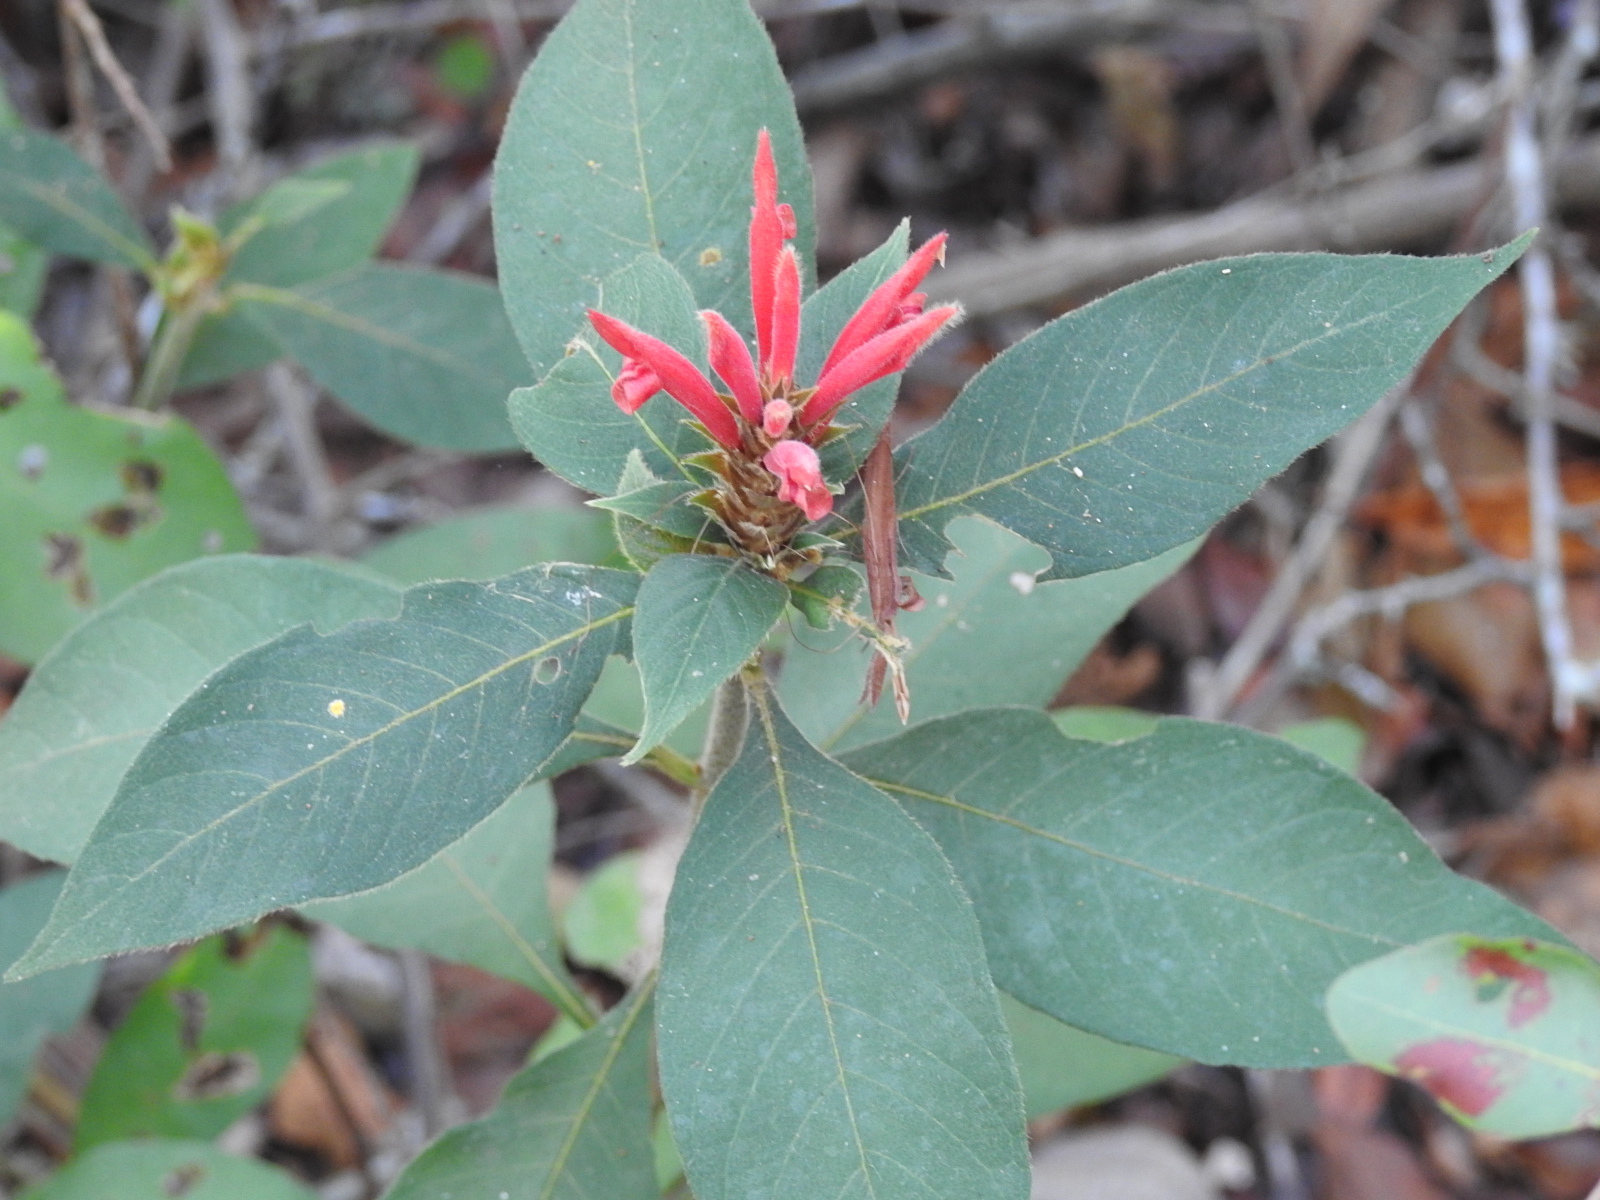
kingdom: Plantae
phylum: Tracheophyta
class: Magnoliopsida
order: Lamiales
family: Acanthaceae
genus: Aphelandra
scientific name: Aphelandra scabra
